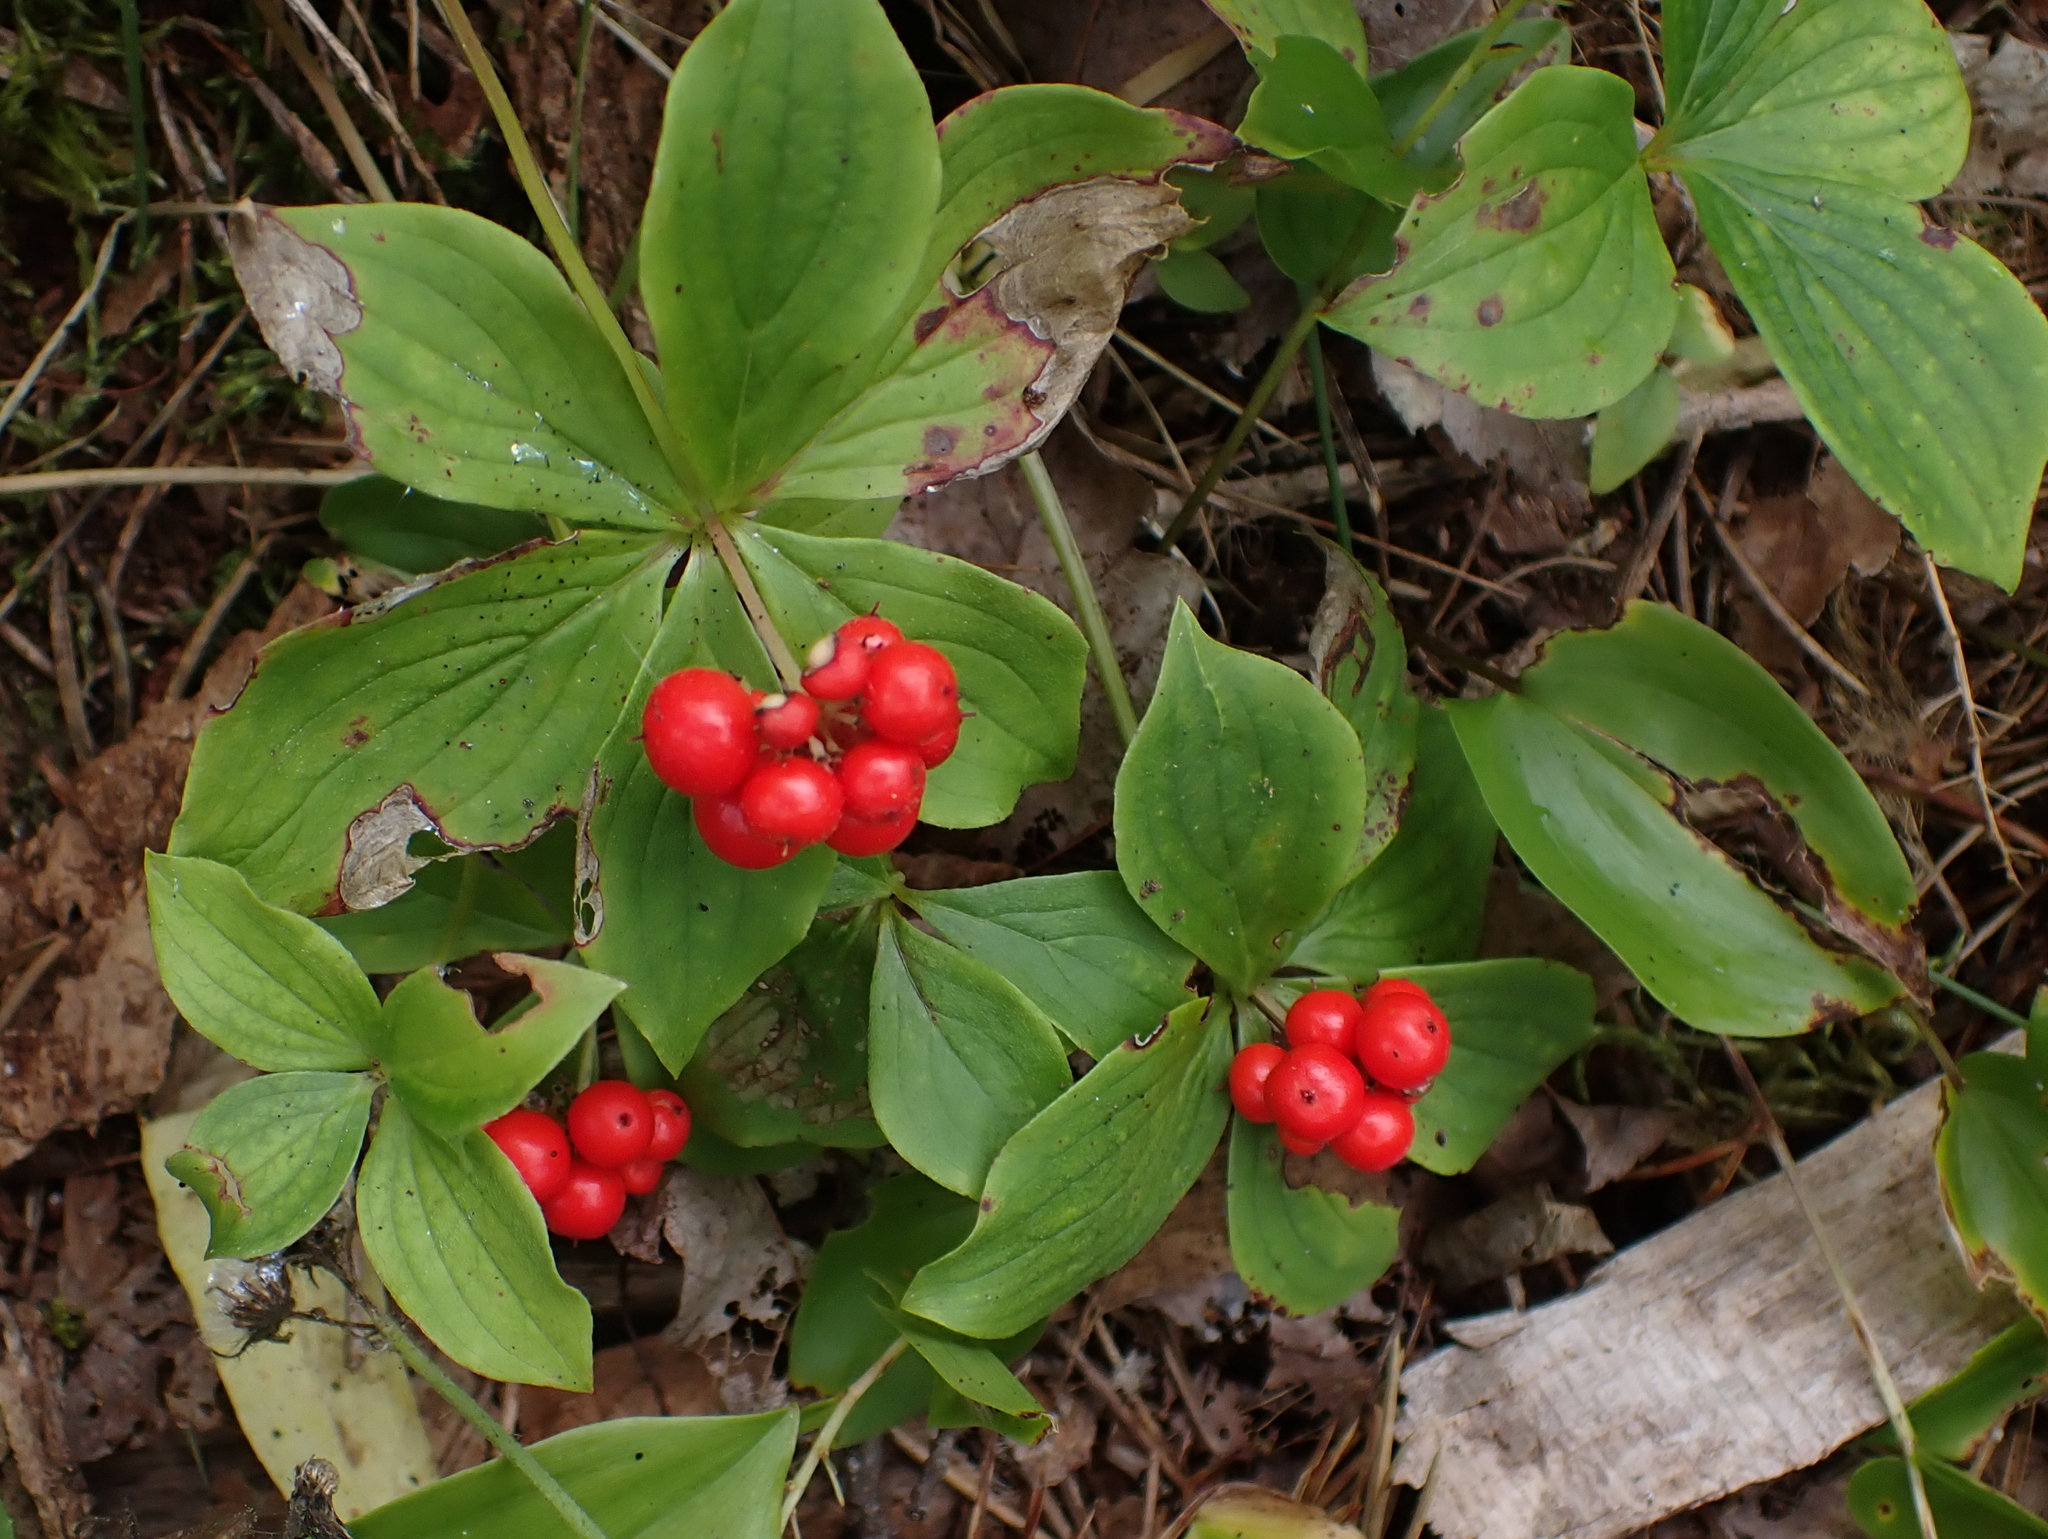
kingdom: Plantae
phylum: Tracheophyta
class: Magnoliopsida
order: Cornales
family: Cornaceae
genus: Cornus
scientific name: Cornus canadensis
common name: Creeping dogwood
